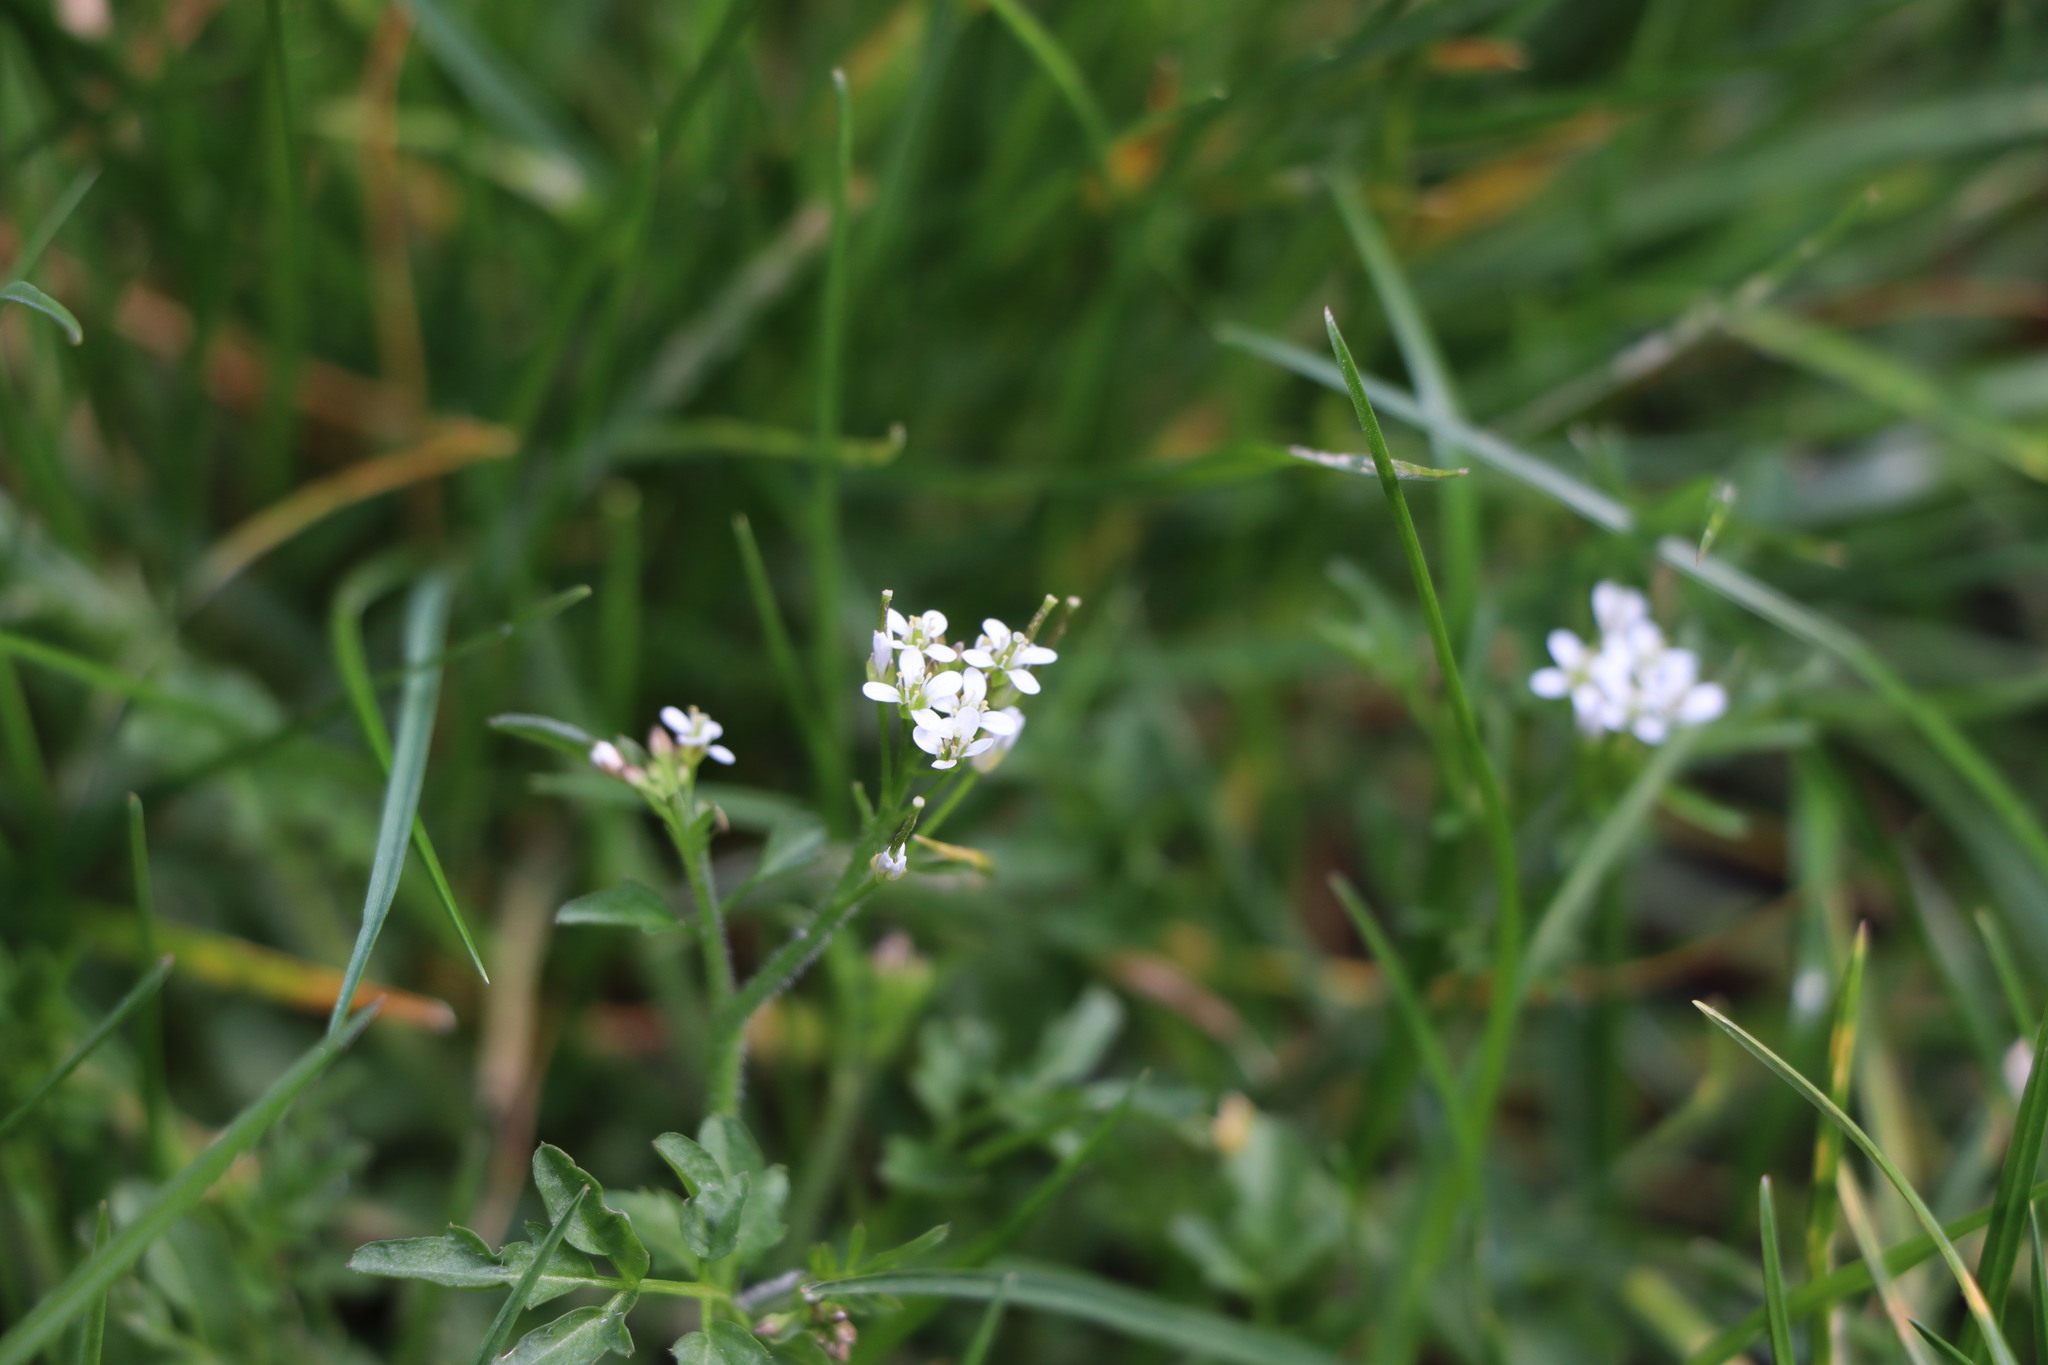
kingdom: Plantae
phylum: Tracheophyta
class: Magnoliopsida
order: Brassicales
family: Brassicaceae
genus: Cardamine
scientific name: Cardamine flexuosa
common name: Woodland bittercress
